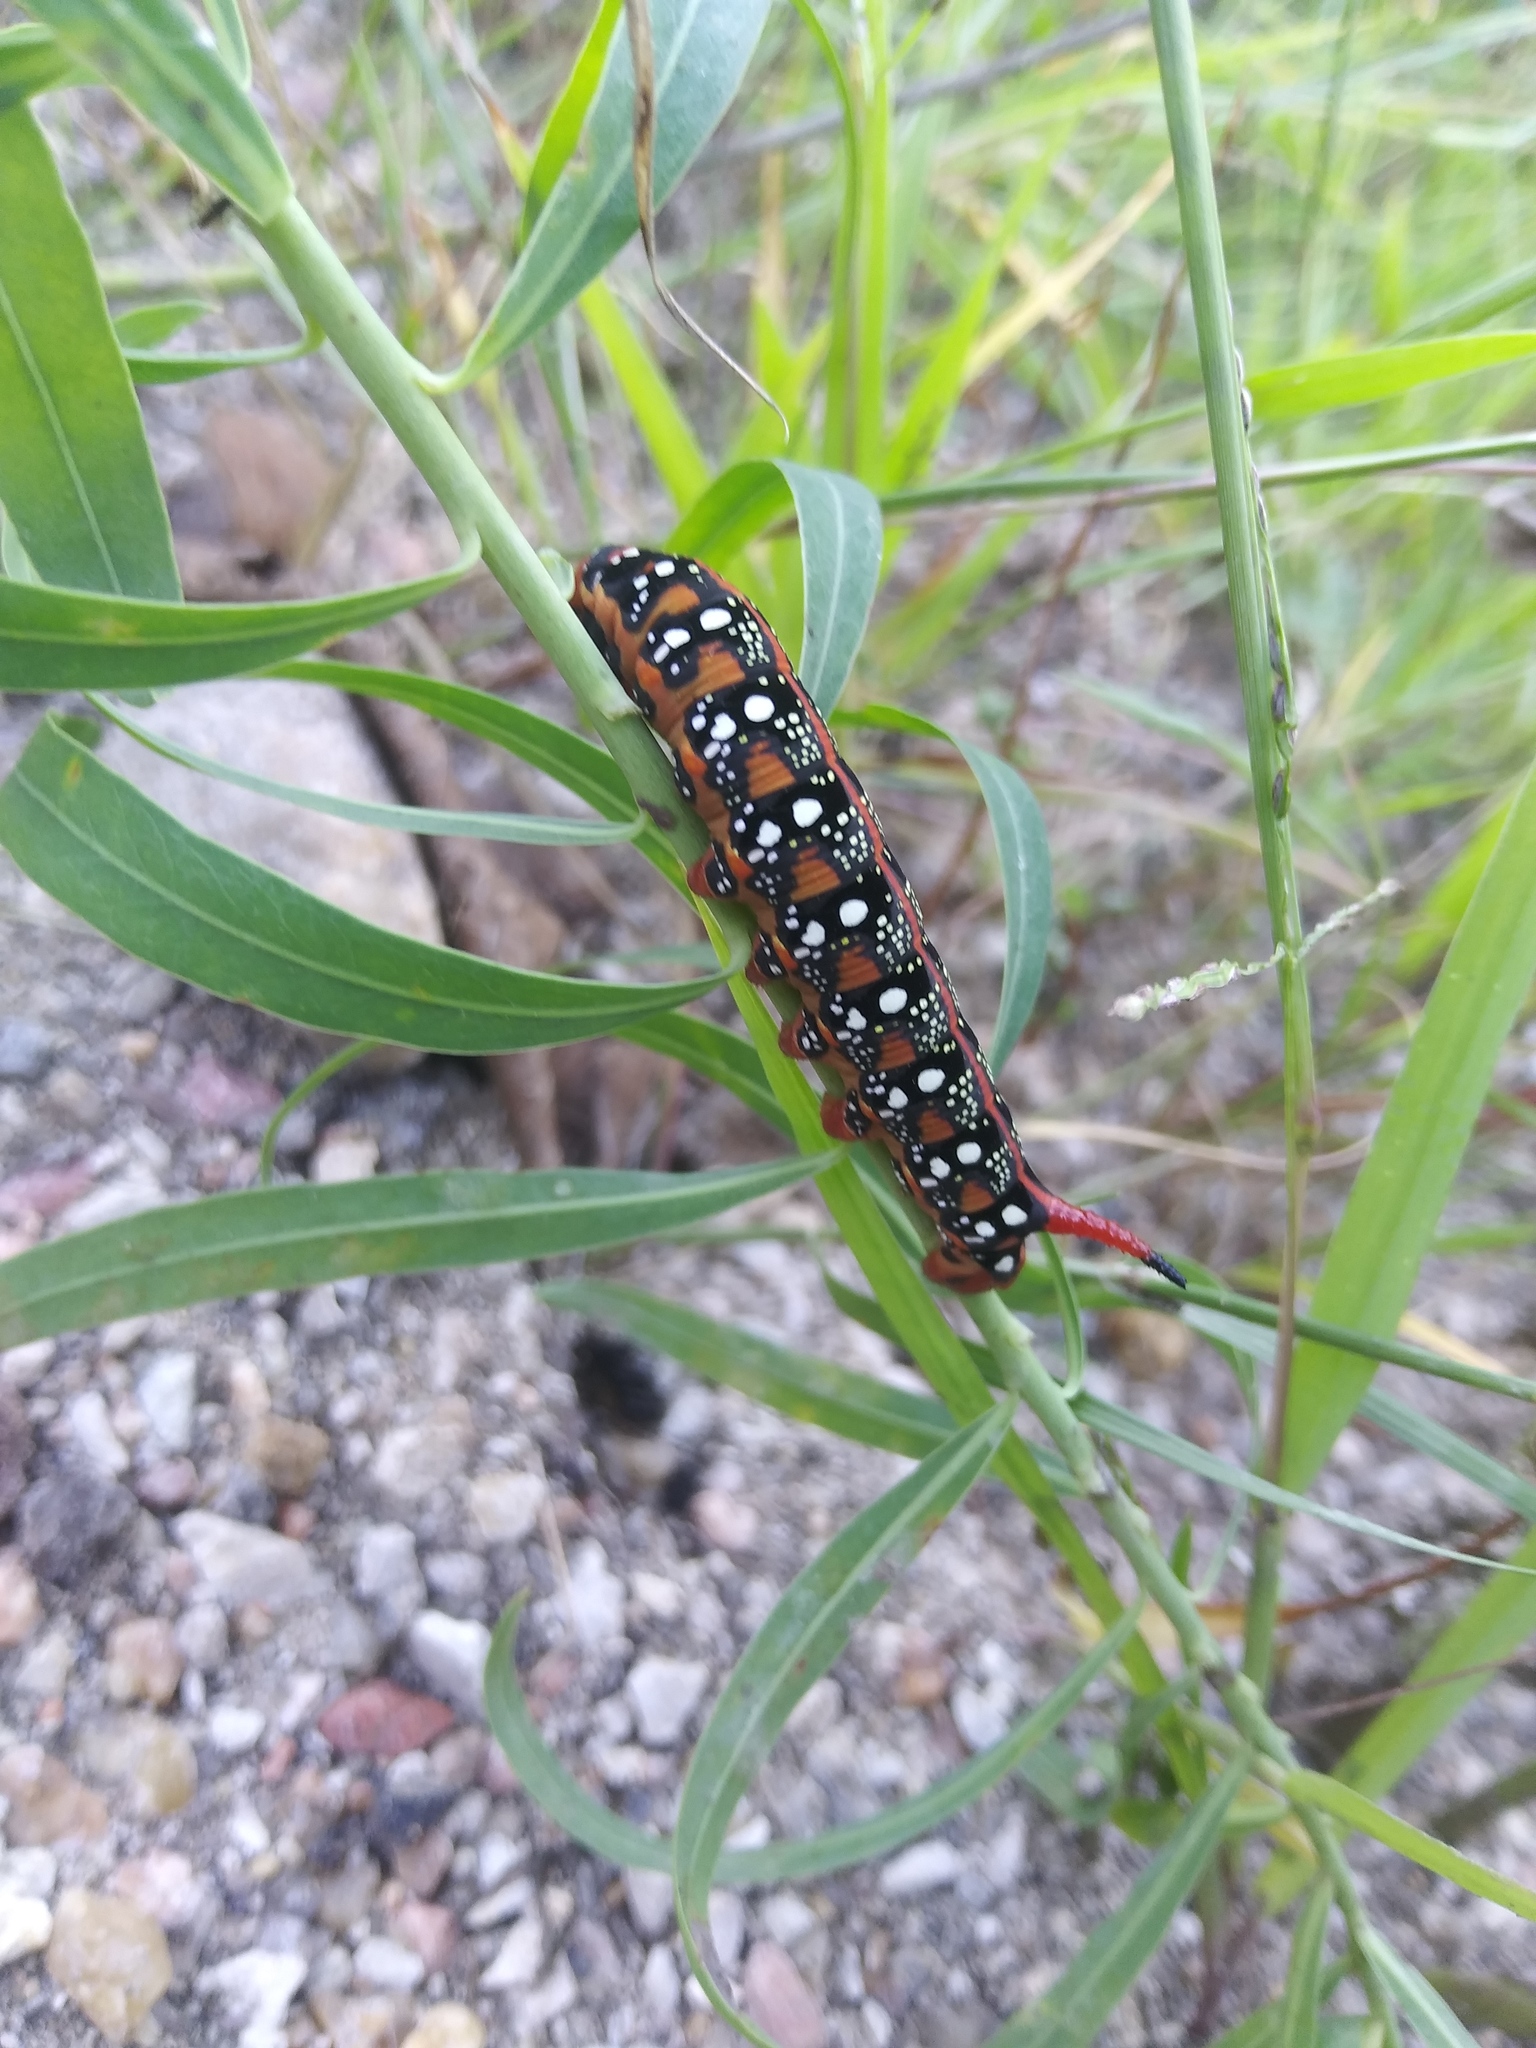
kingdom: Animalia
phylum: Arthropoda
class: Insecta
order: Lepidoptera
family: Sphingidae
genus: Hyles
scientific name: Hyles euphorbiae
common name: Spurge hawk-moth
